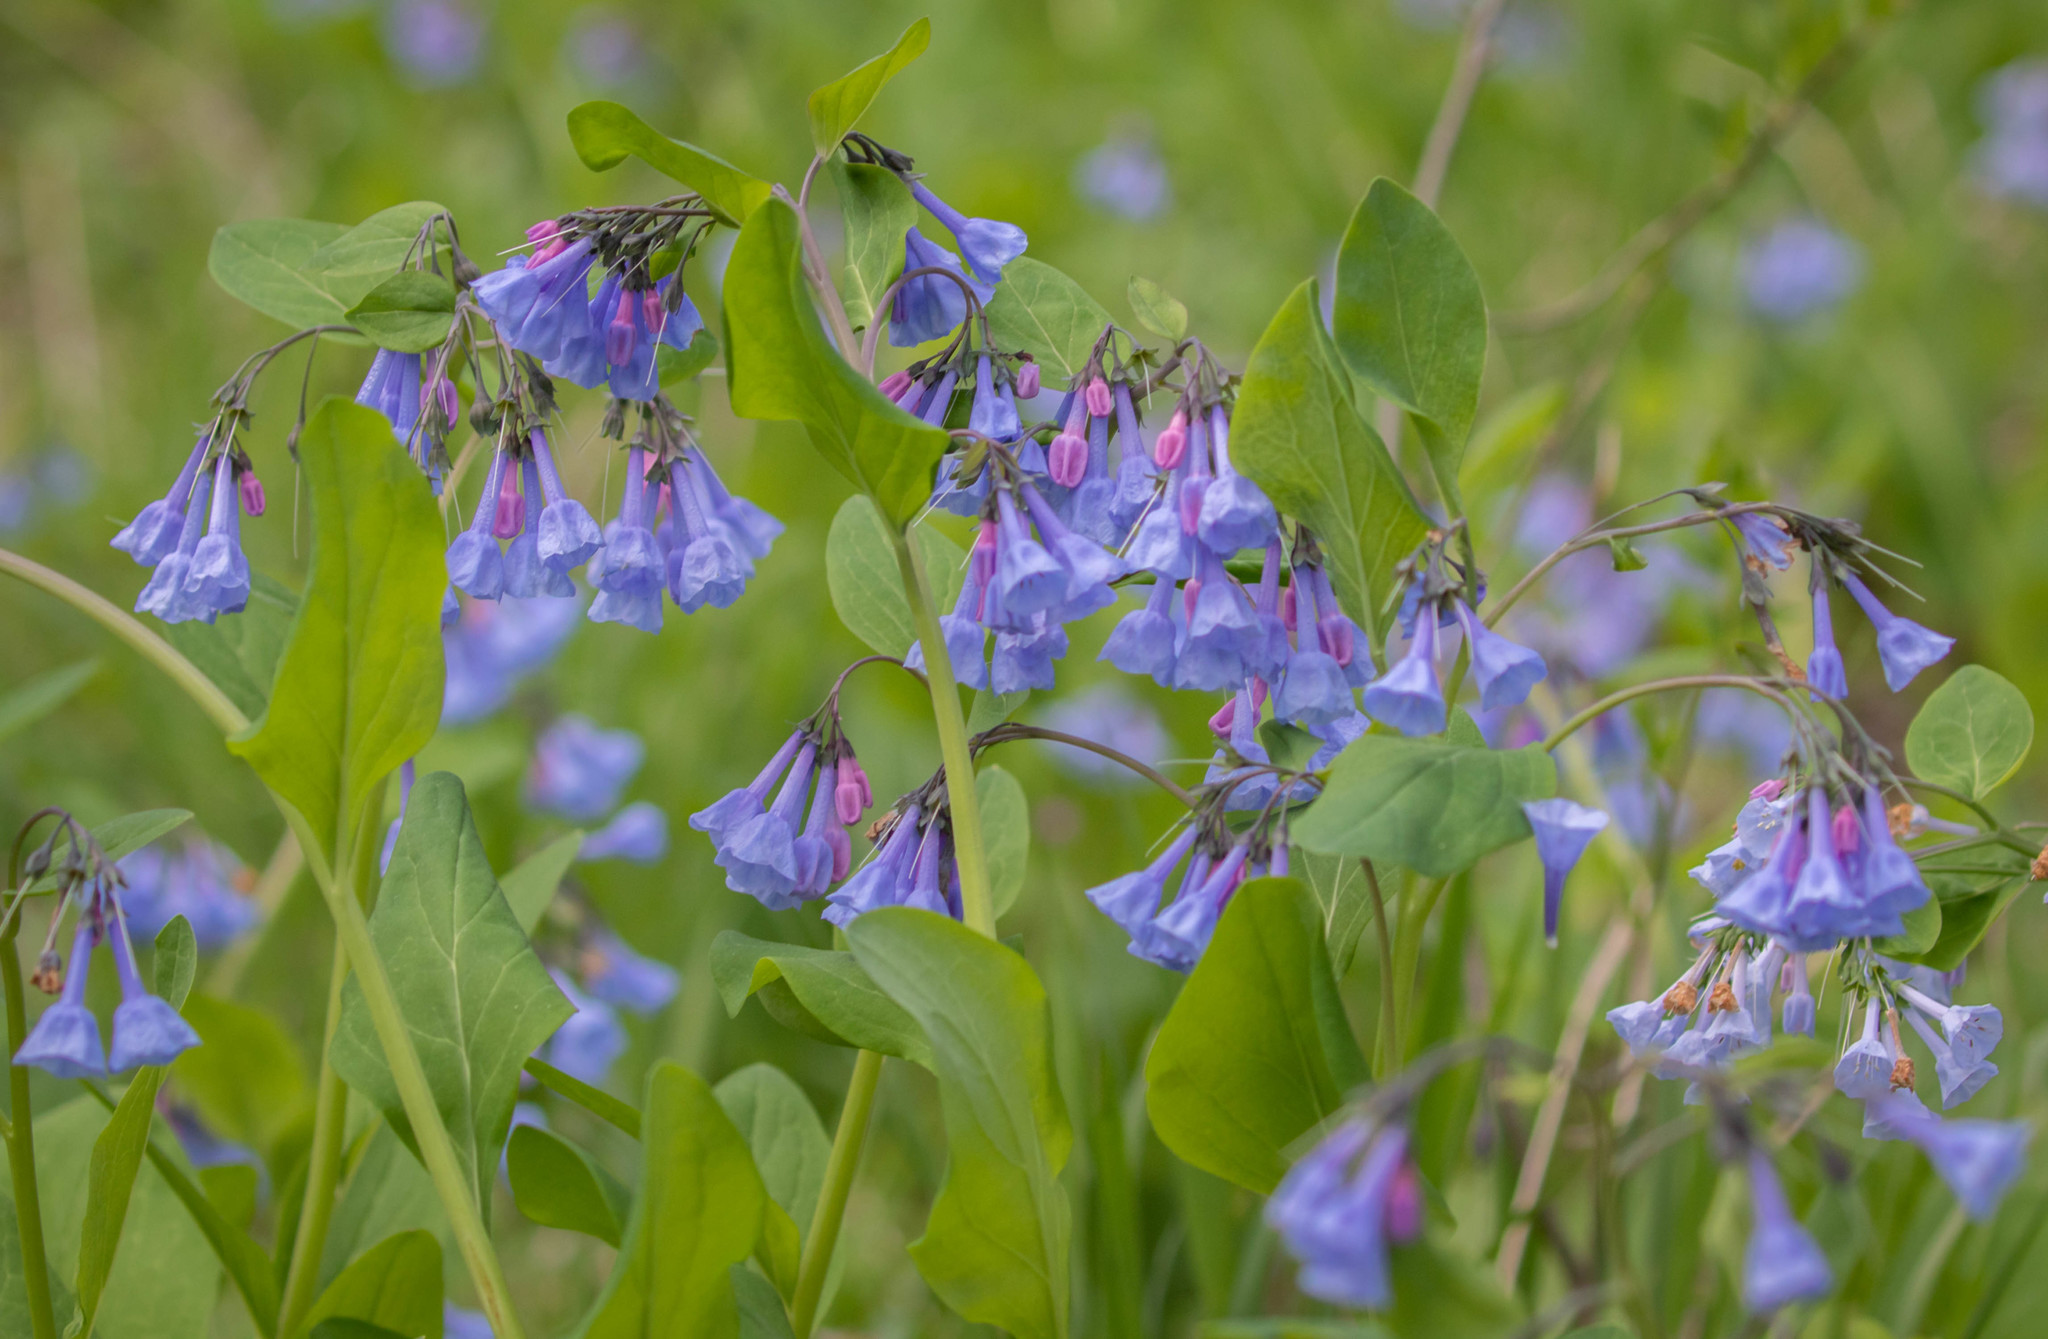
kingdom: Plantae
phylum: Tracheophyta
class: Magnoliopsida
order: Boraginales
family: Boraginaceae
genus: Mertensia
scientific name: Mertensia virginica
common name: Virginia bluebells
